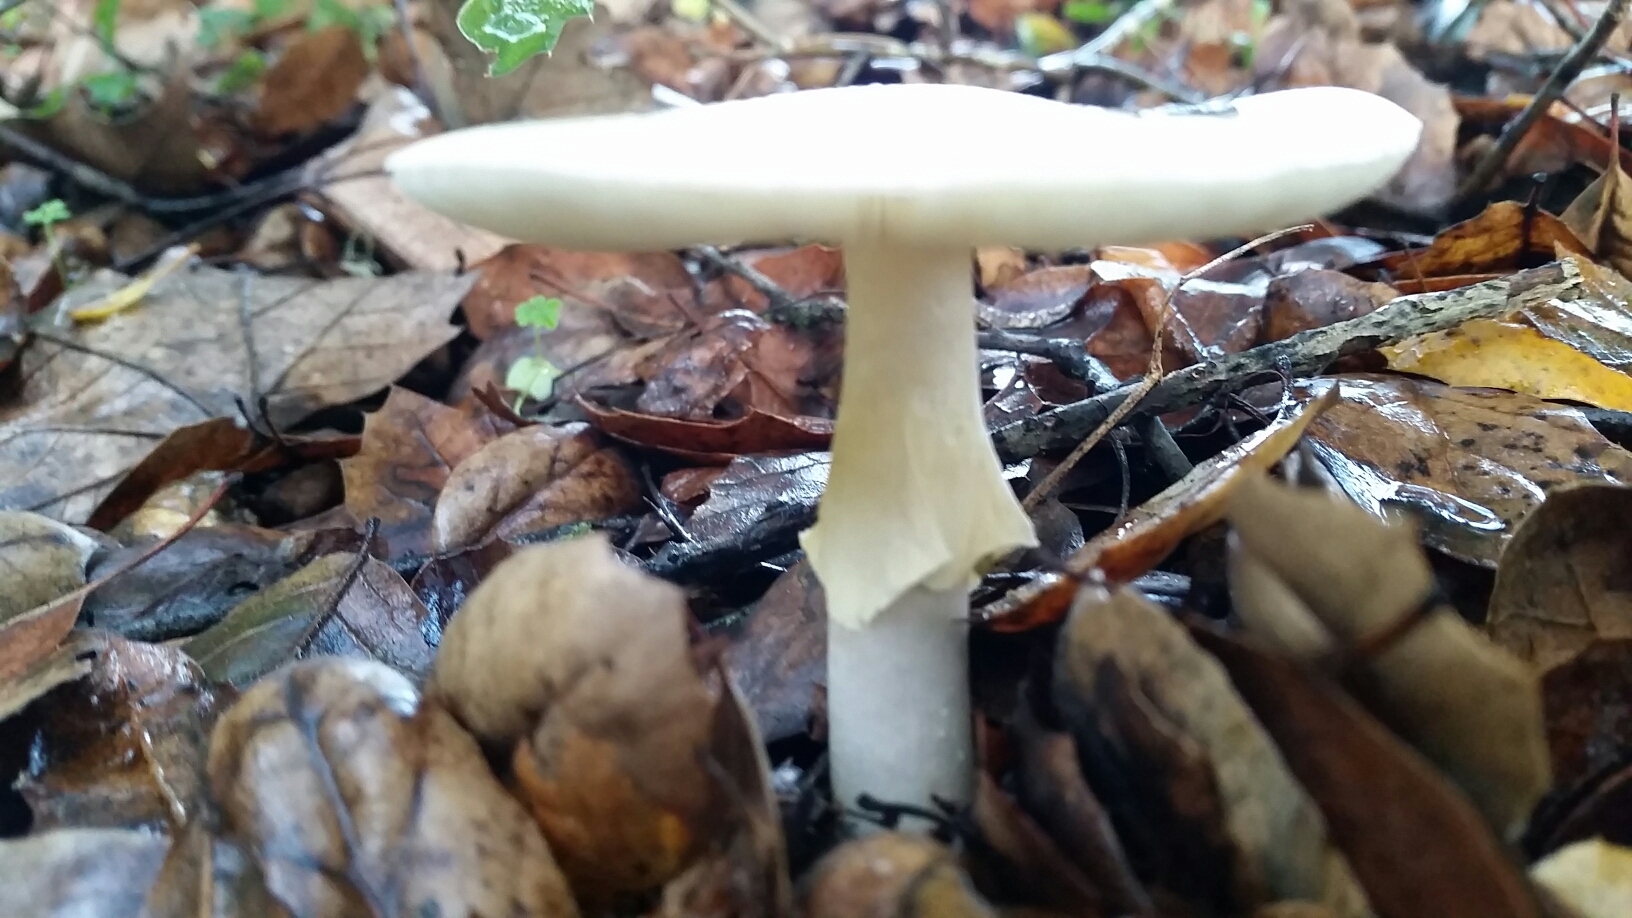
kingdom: Fungi
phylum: Basidiomycota
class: Agaricomycetes
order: Agaricales
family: Amanitaceae
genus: Amanita
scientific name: Amanita phalloides
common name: Death cap
